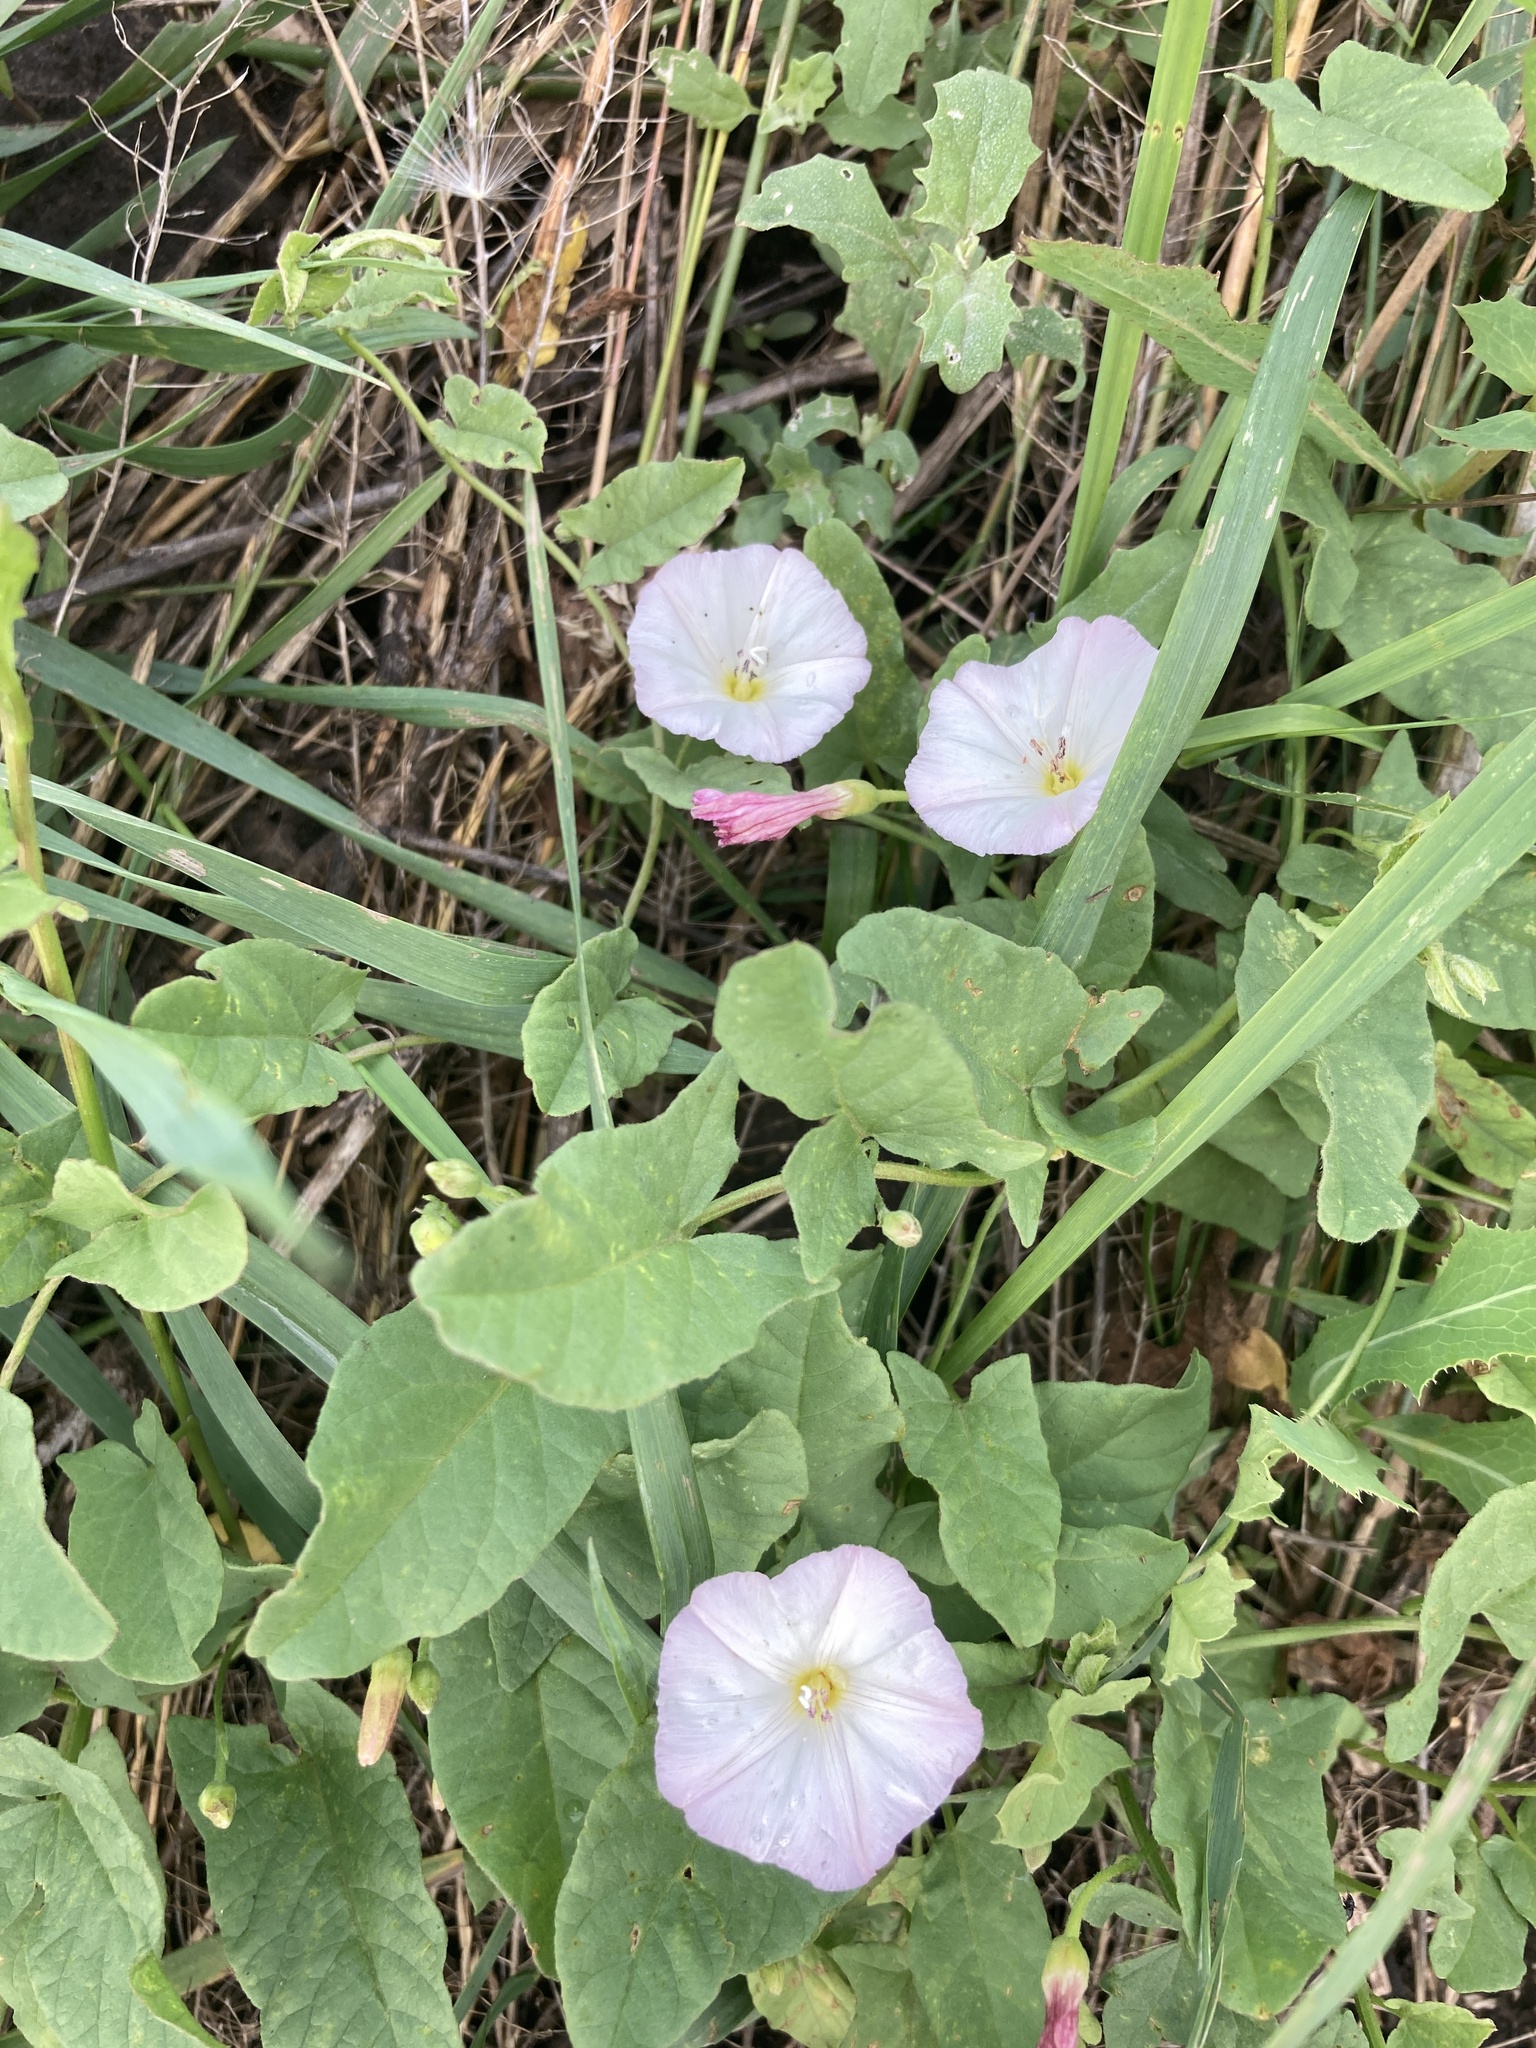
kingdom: Plantae
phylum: Tracheophyta
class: Magnoliopsida
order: Solanales
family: Convolvulaceae
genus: Convolvulus
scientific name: Convolvulus arvensis
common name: Field bindweed
